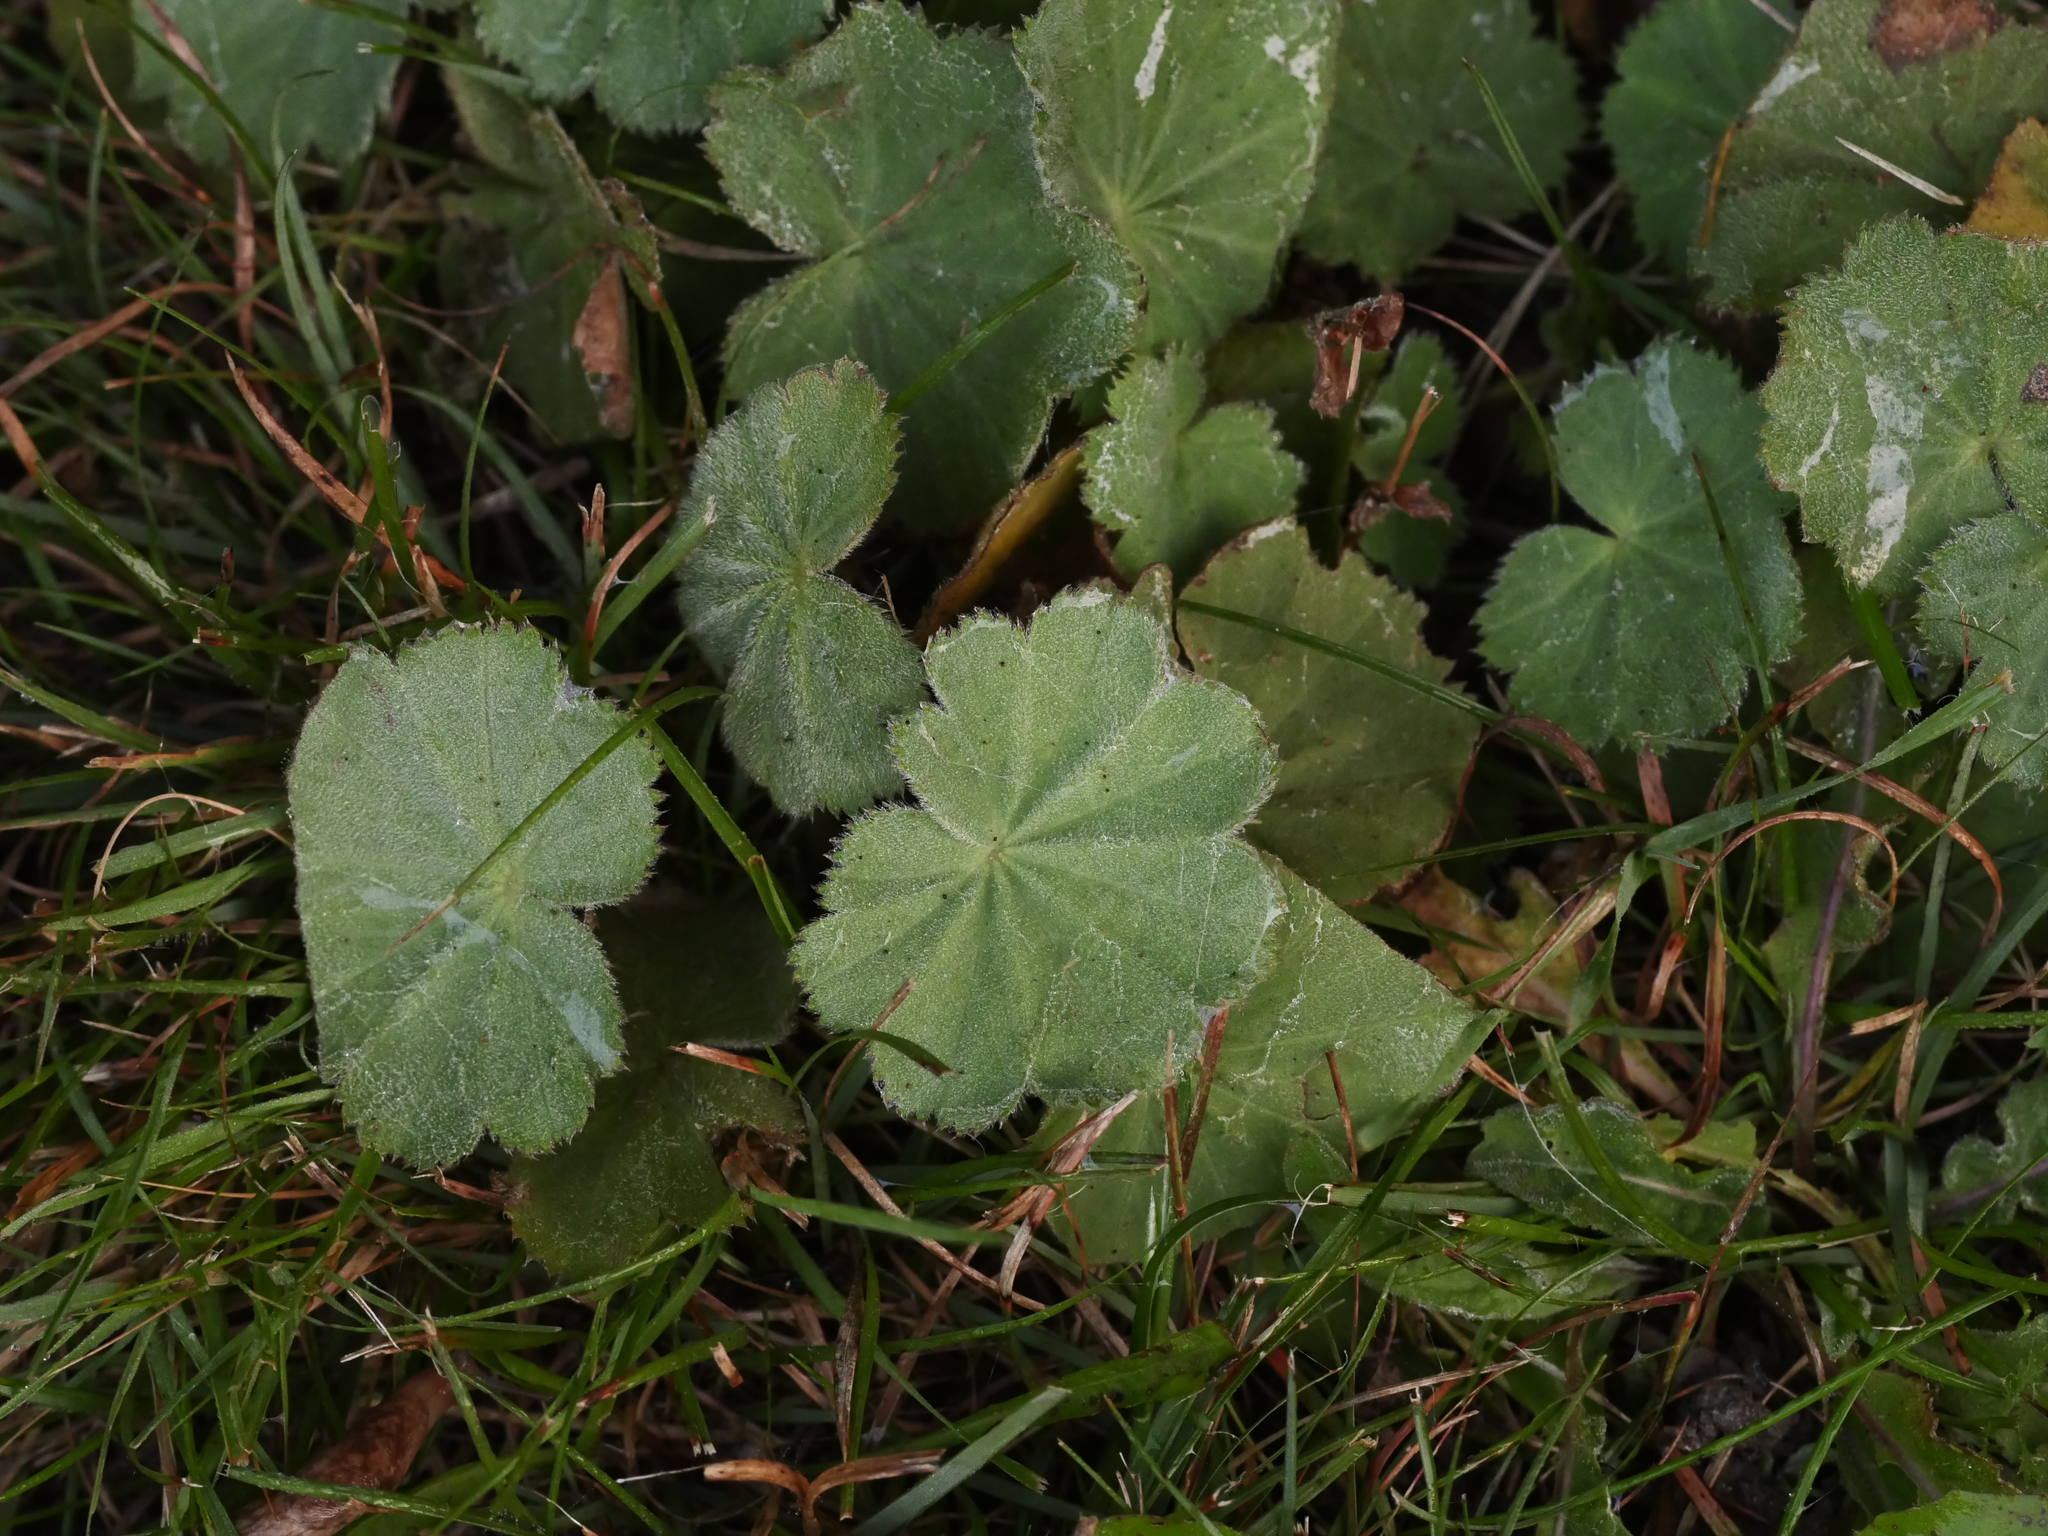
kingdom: Plantae
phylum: Tracheophyta
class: Magnoliopsida
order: Rosales
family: Rosaceae
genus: Alchemilla
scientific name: Alchemilla mollis
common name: Lady's-mantle
